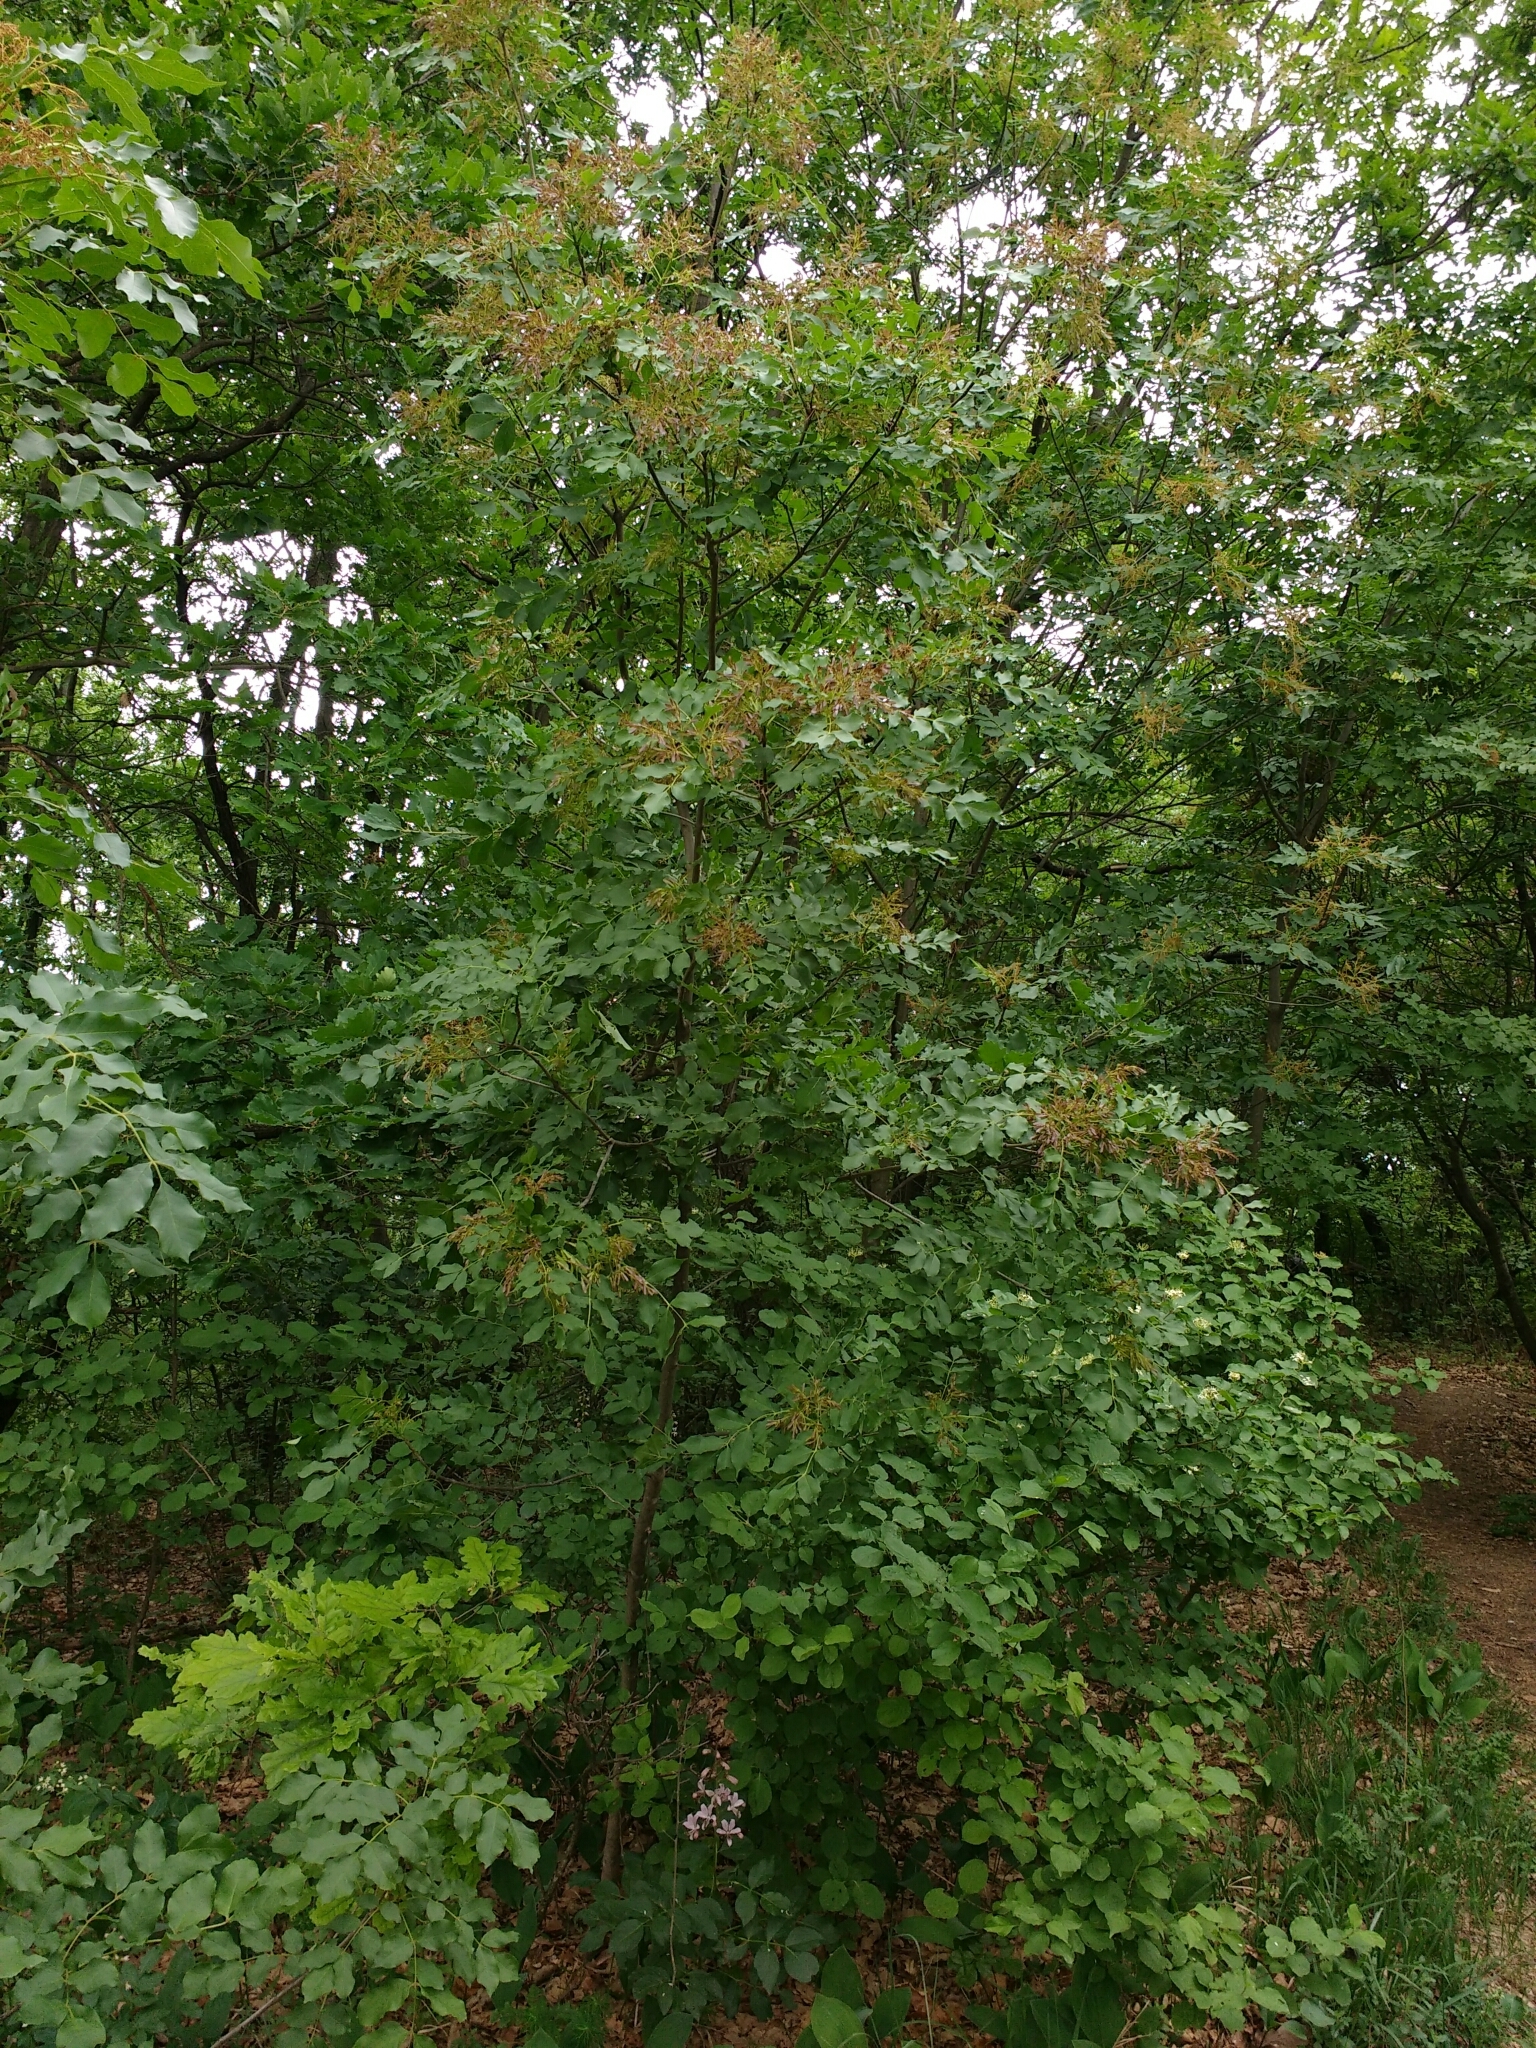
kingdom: Plantae
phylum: Tracheophyta
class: Magnoliopsida
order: Lamiales
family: Oleaceae
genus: Fraxinus
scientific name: Fraxinus ornus
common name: Manna ash
